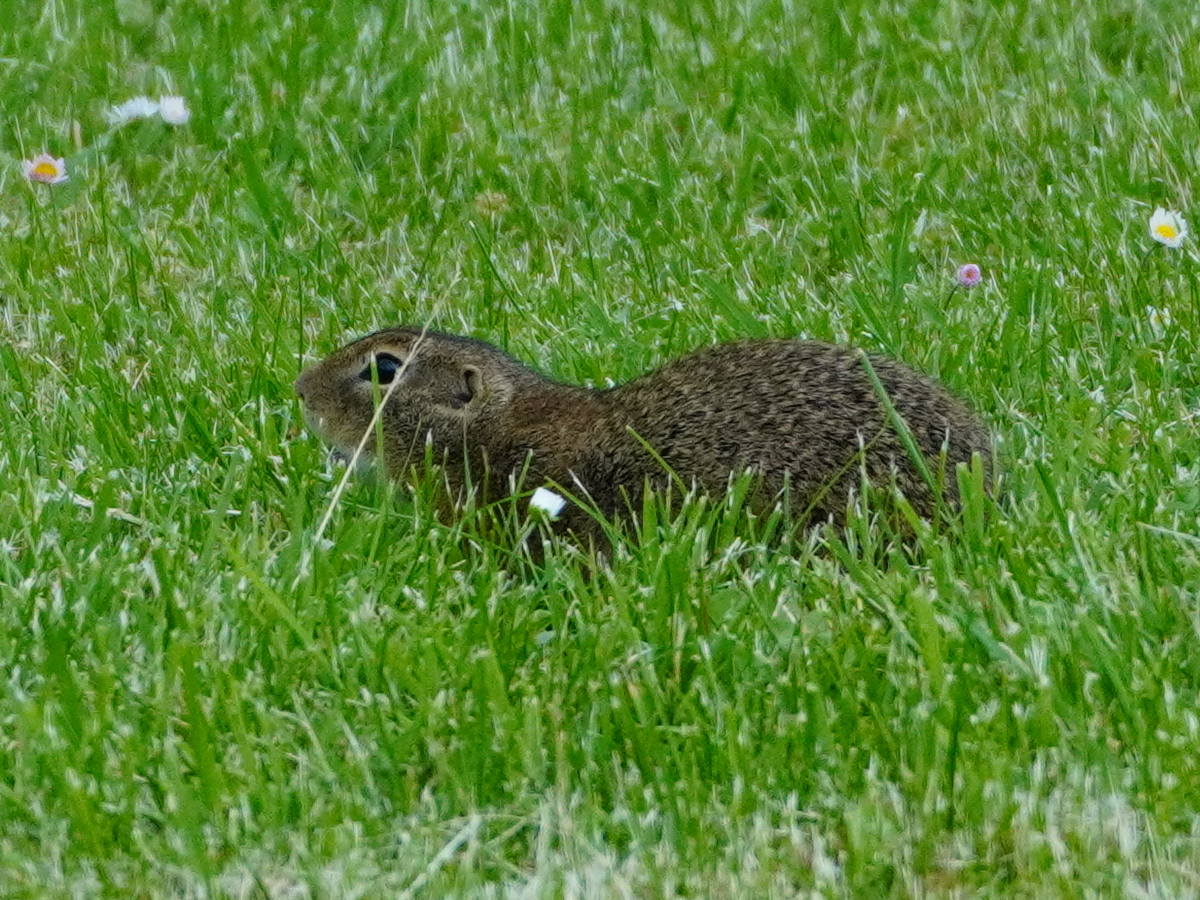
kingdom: Animalia
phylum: Chordata
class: Mammalia
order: Rodentia
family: Sciuridae
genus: Spermophilus
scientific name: Spermophilus citellus
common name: European ground squirrel
